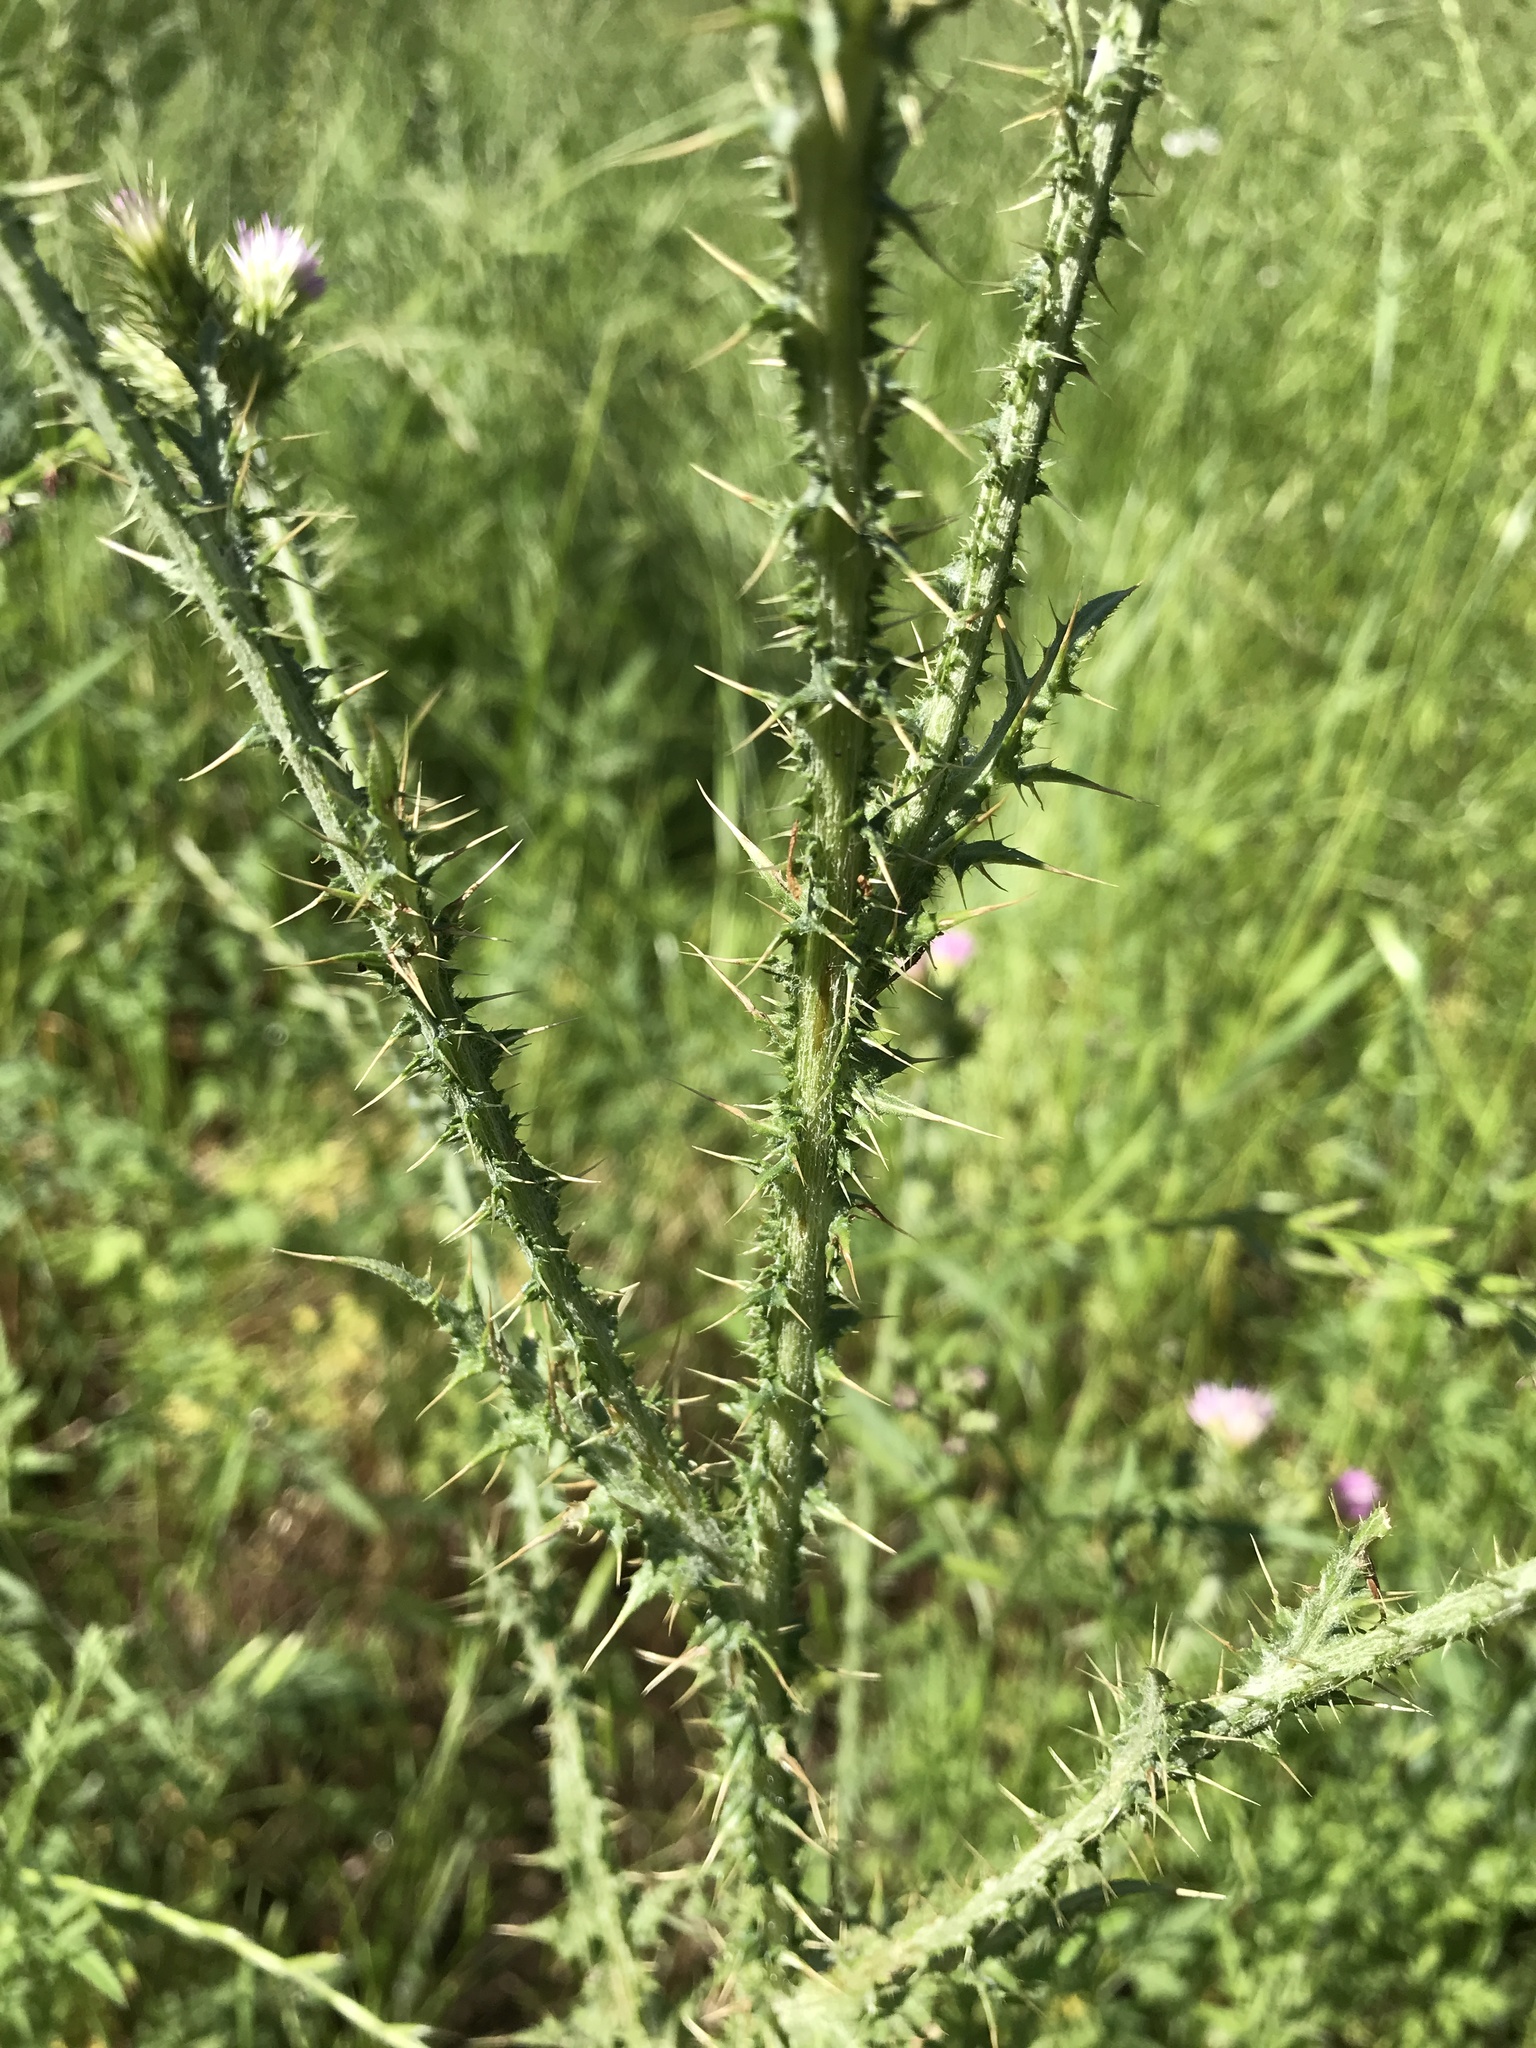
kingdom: Plantae
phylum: Tracheophyta
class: Magnoliopsida
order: Asterales
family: Asteraceae
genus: Carduus
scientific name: Carduus tenuiflorus
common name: Slender thistle
